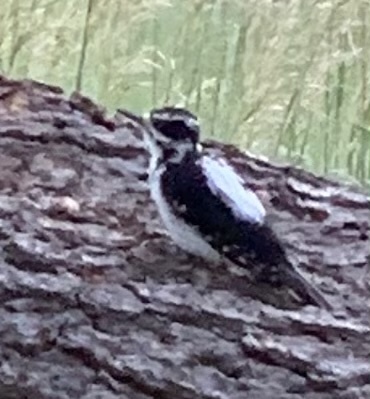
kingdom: Animalia
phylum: Chordata
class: Aves
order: Piciformes
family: Picidae
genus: Leuconotopicus
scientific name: Leuconotopicus villosus
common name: Hairy woodpecker
